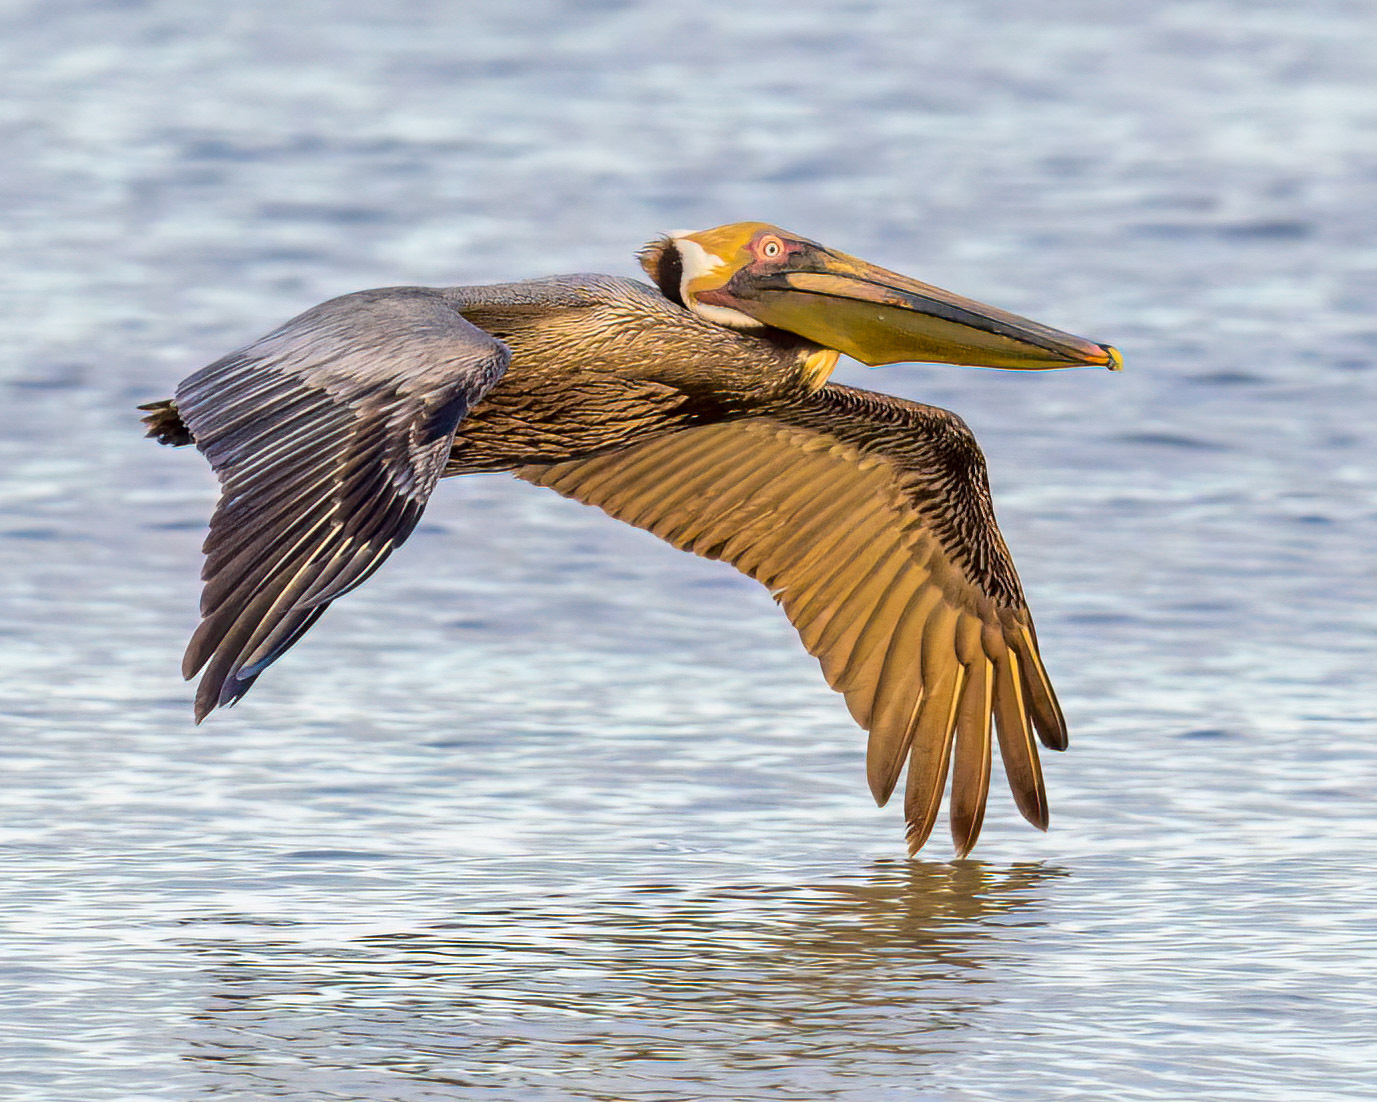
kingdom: Animalia
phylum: Chordata
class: Aves
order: Pelecaniformes
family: Pelecanidae
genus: Pelecanus
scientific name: Pelecanus occidentalis
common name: Brown pelican
